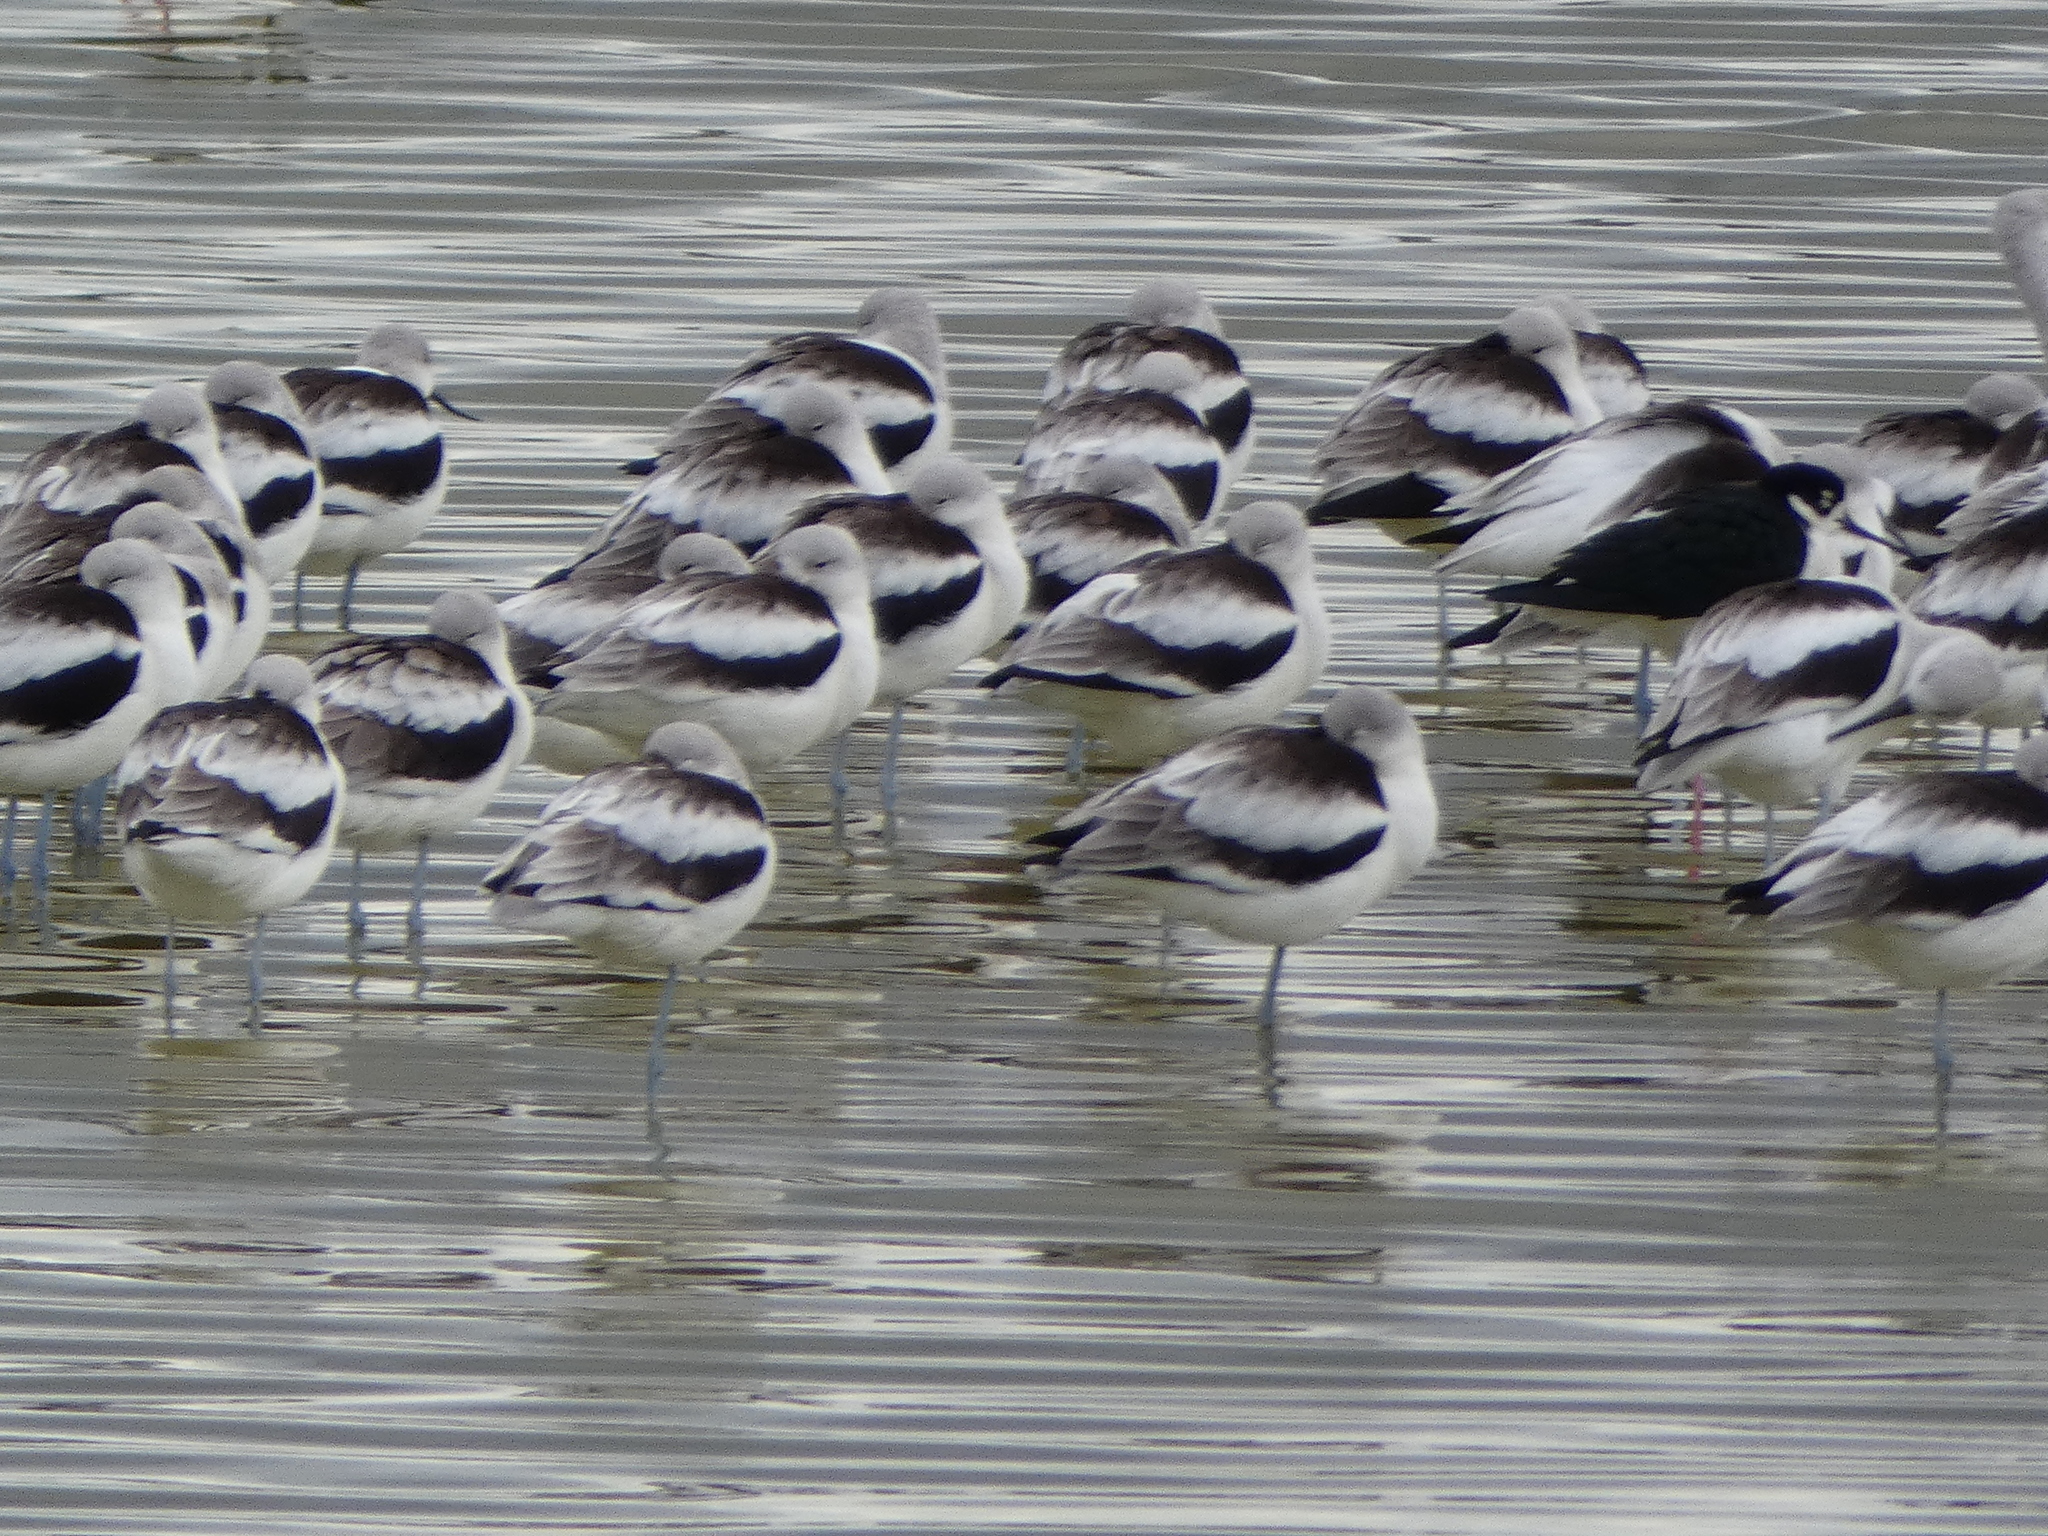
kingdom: Animalia
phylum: Chordata
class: Aves
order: Charadriiformes
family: Recurvirostridae
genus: Recurvirostra
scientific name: Recurvirostra americana
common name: American avocet
